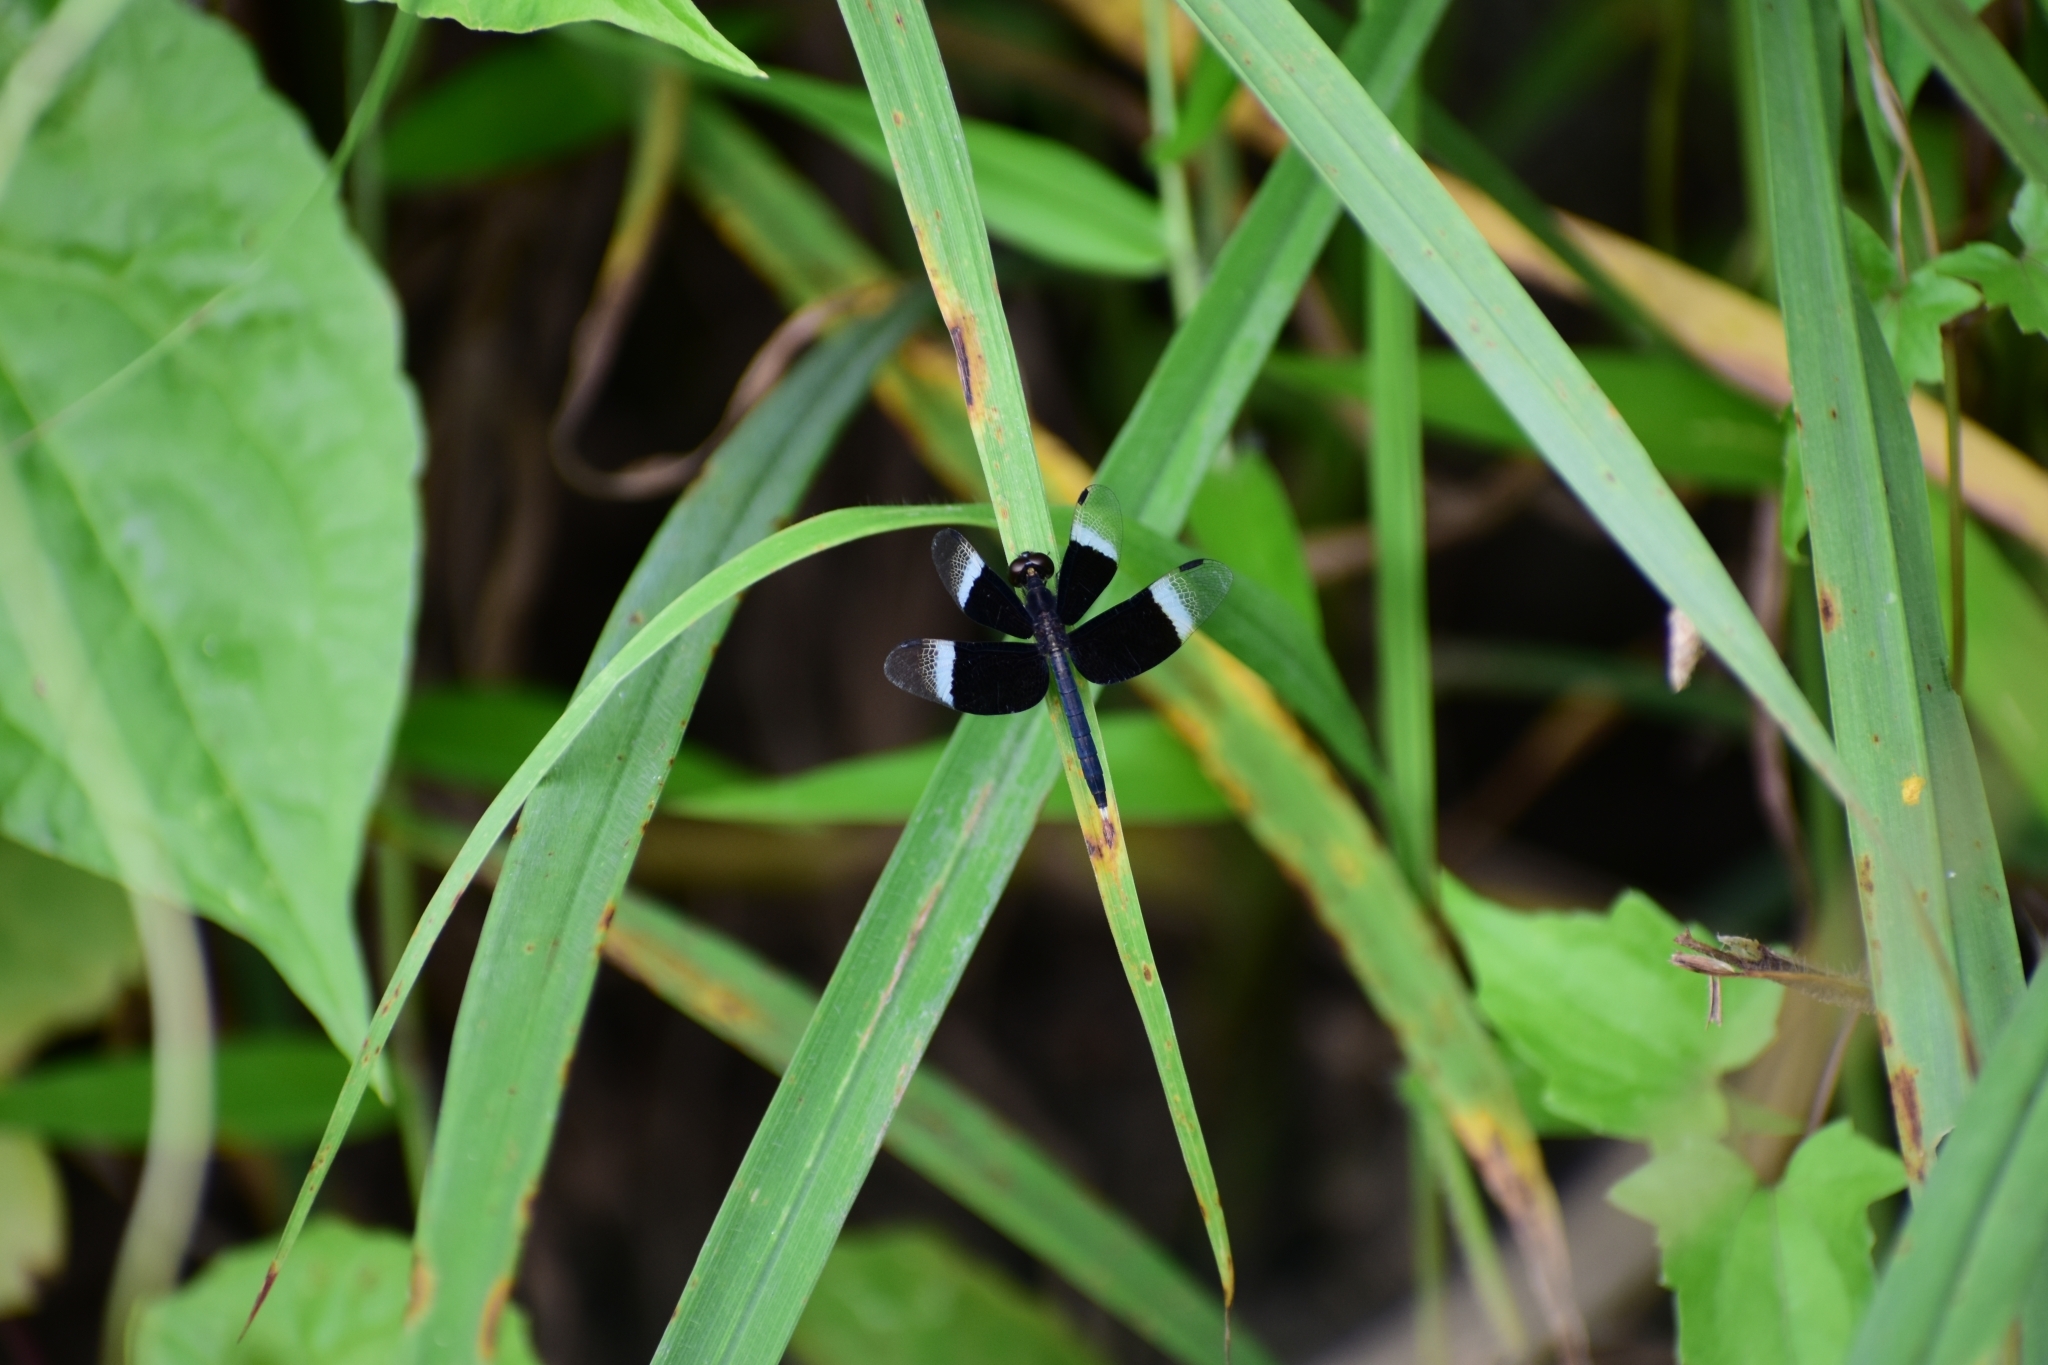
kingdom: Animalia
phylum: Arthropoda
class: Insecta
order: Odonata
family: Libellulidae
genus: Neurothemis
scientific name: Neurothemis tullia
